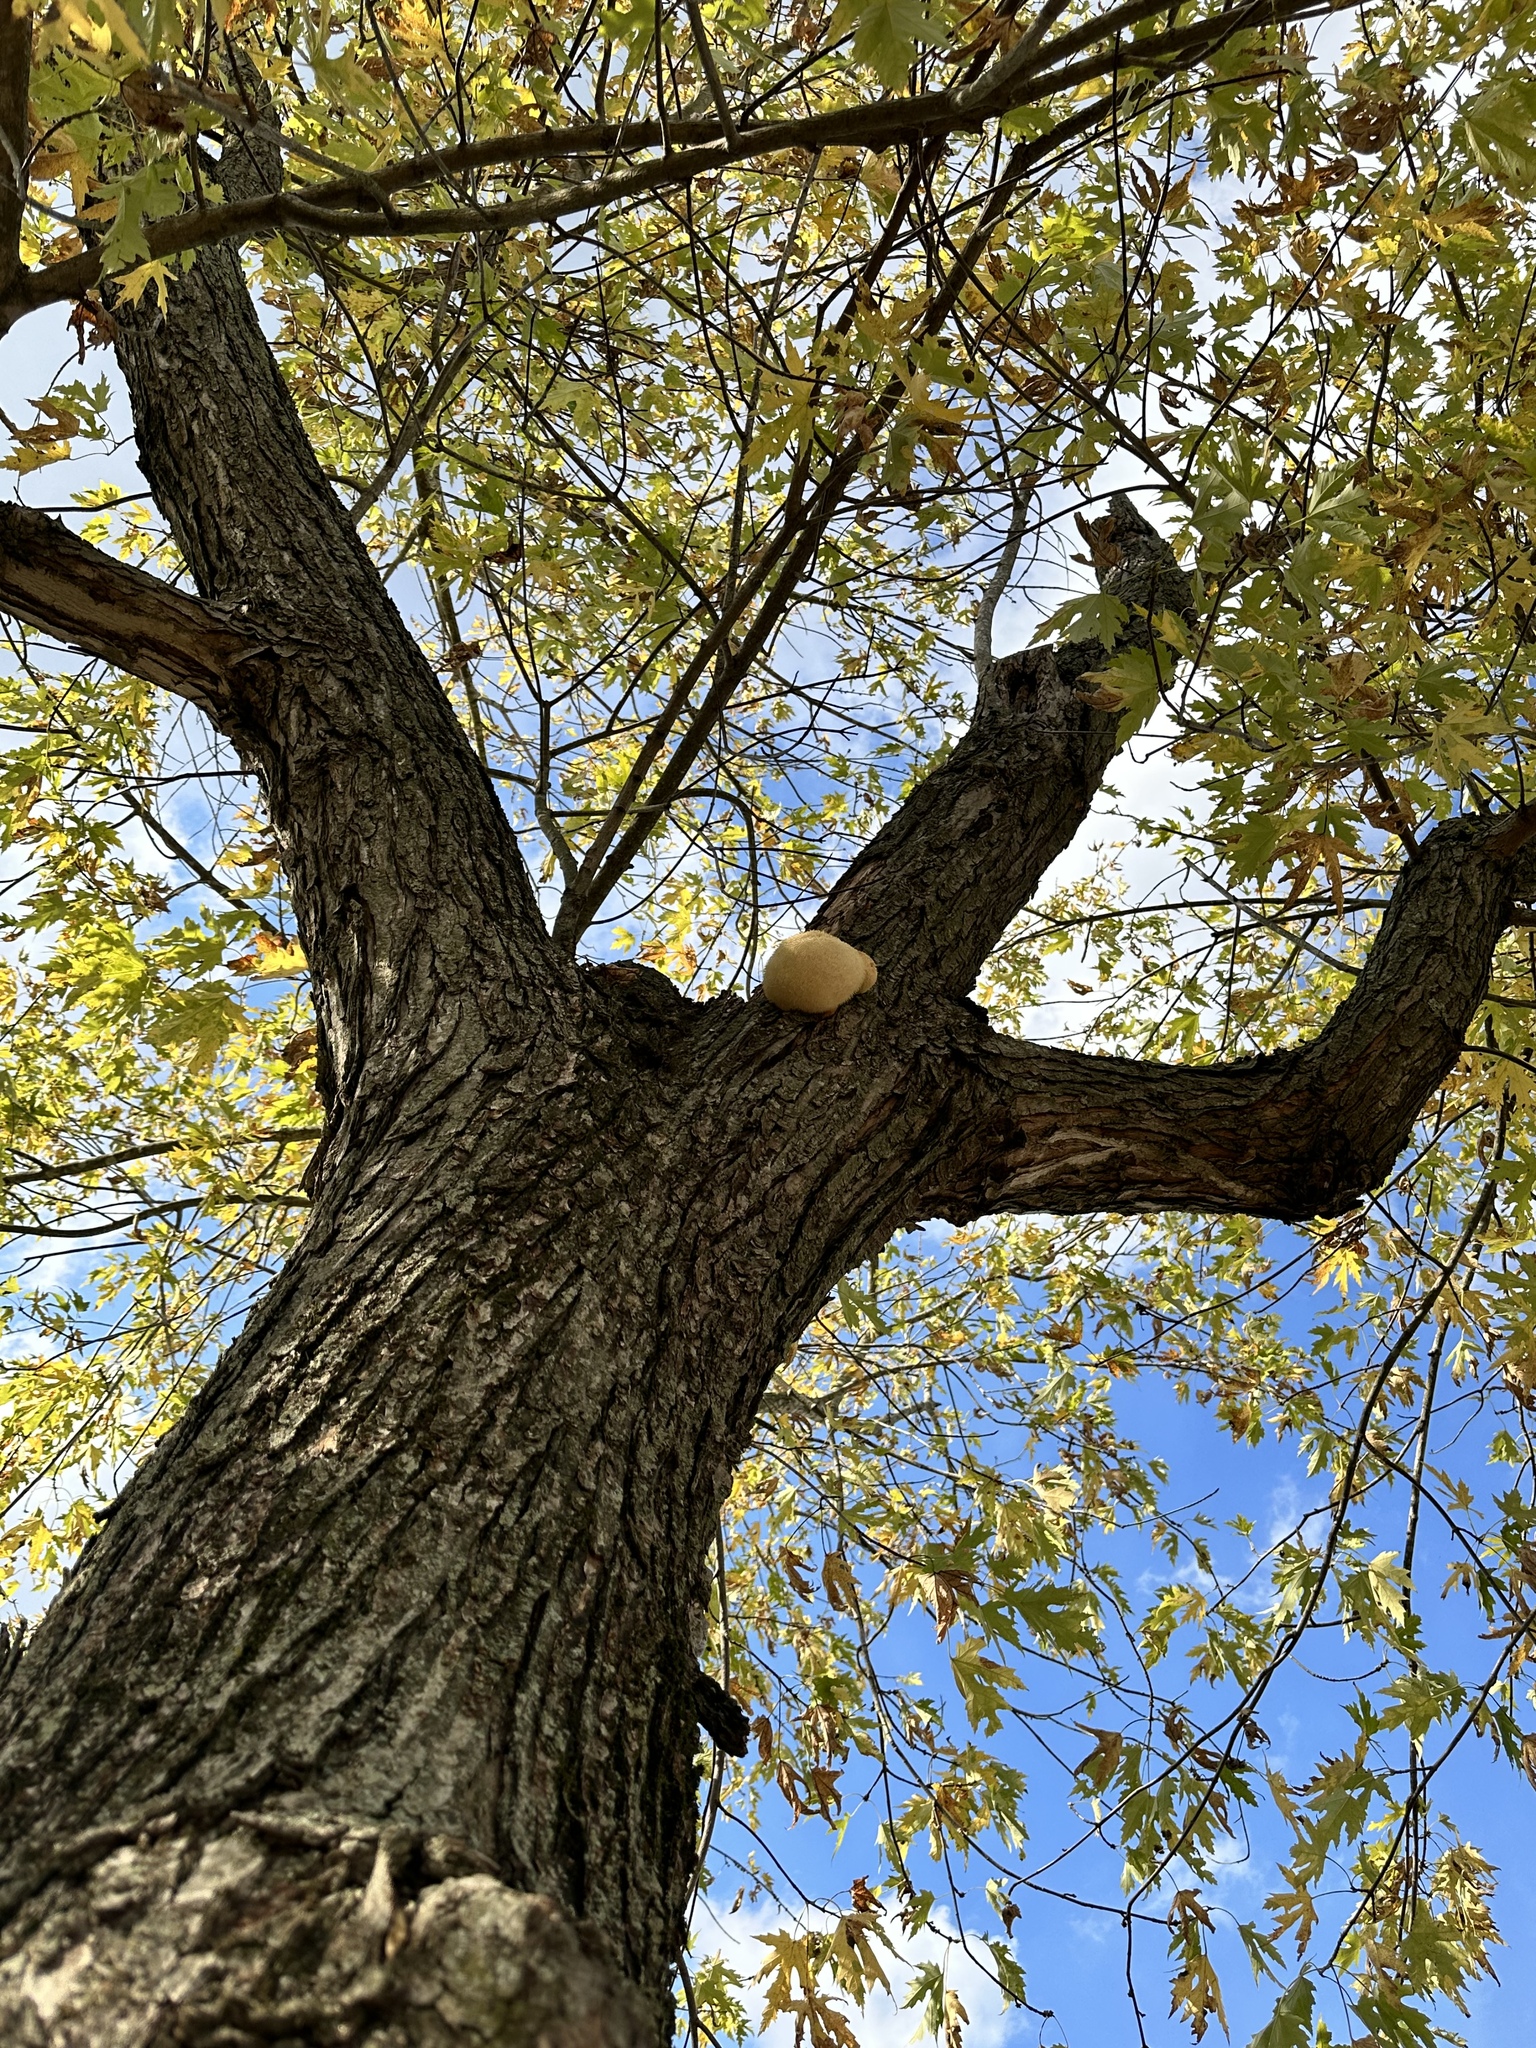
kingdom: Fungi
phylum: Basidiomycota
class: Agaricomycetes
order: Russulales
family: Hericiaceae
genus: Hericium
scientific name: Hericium erinaceus
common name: Bearded tooth
